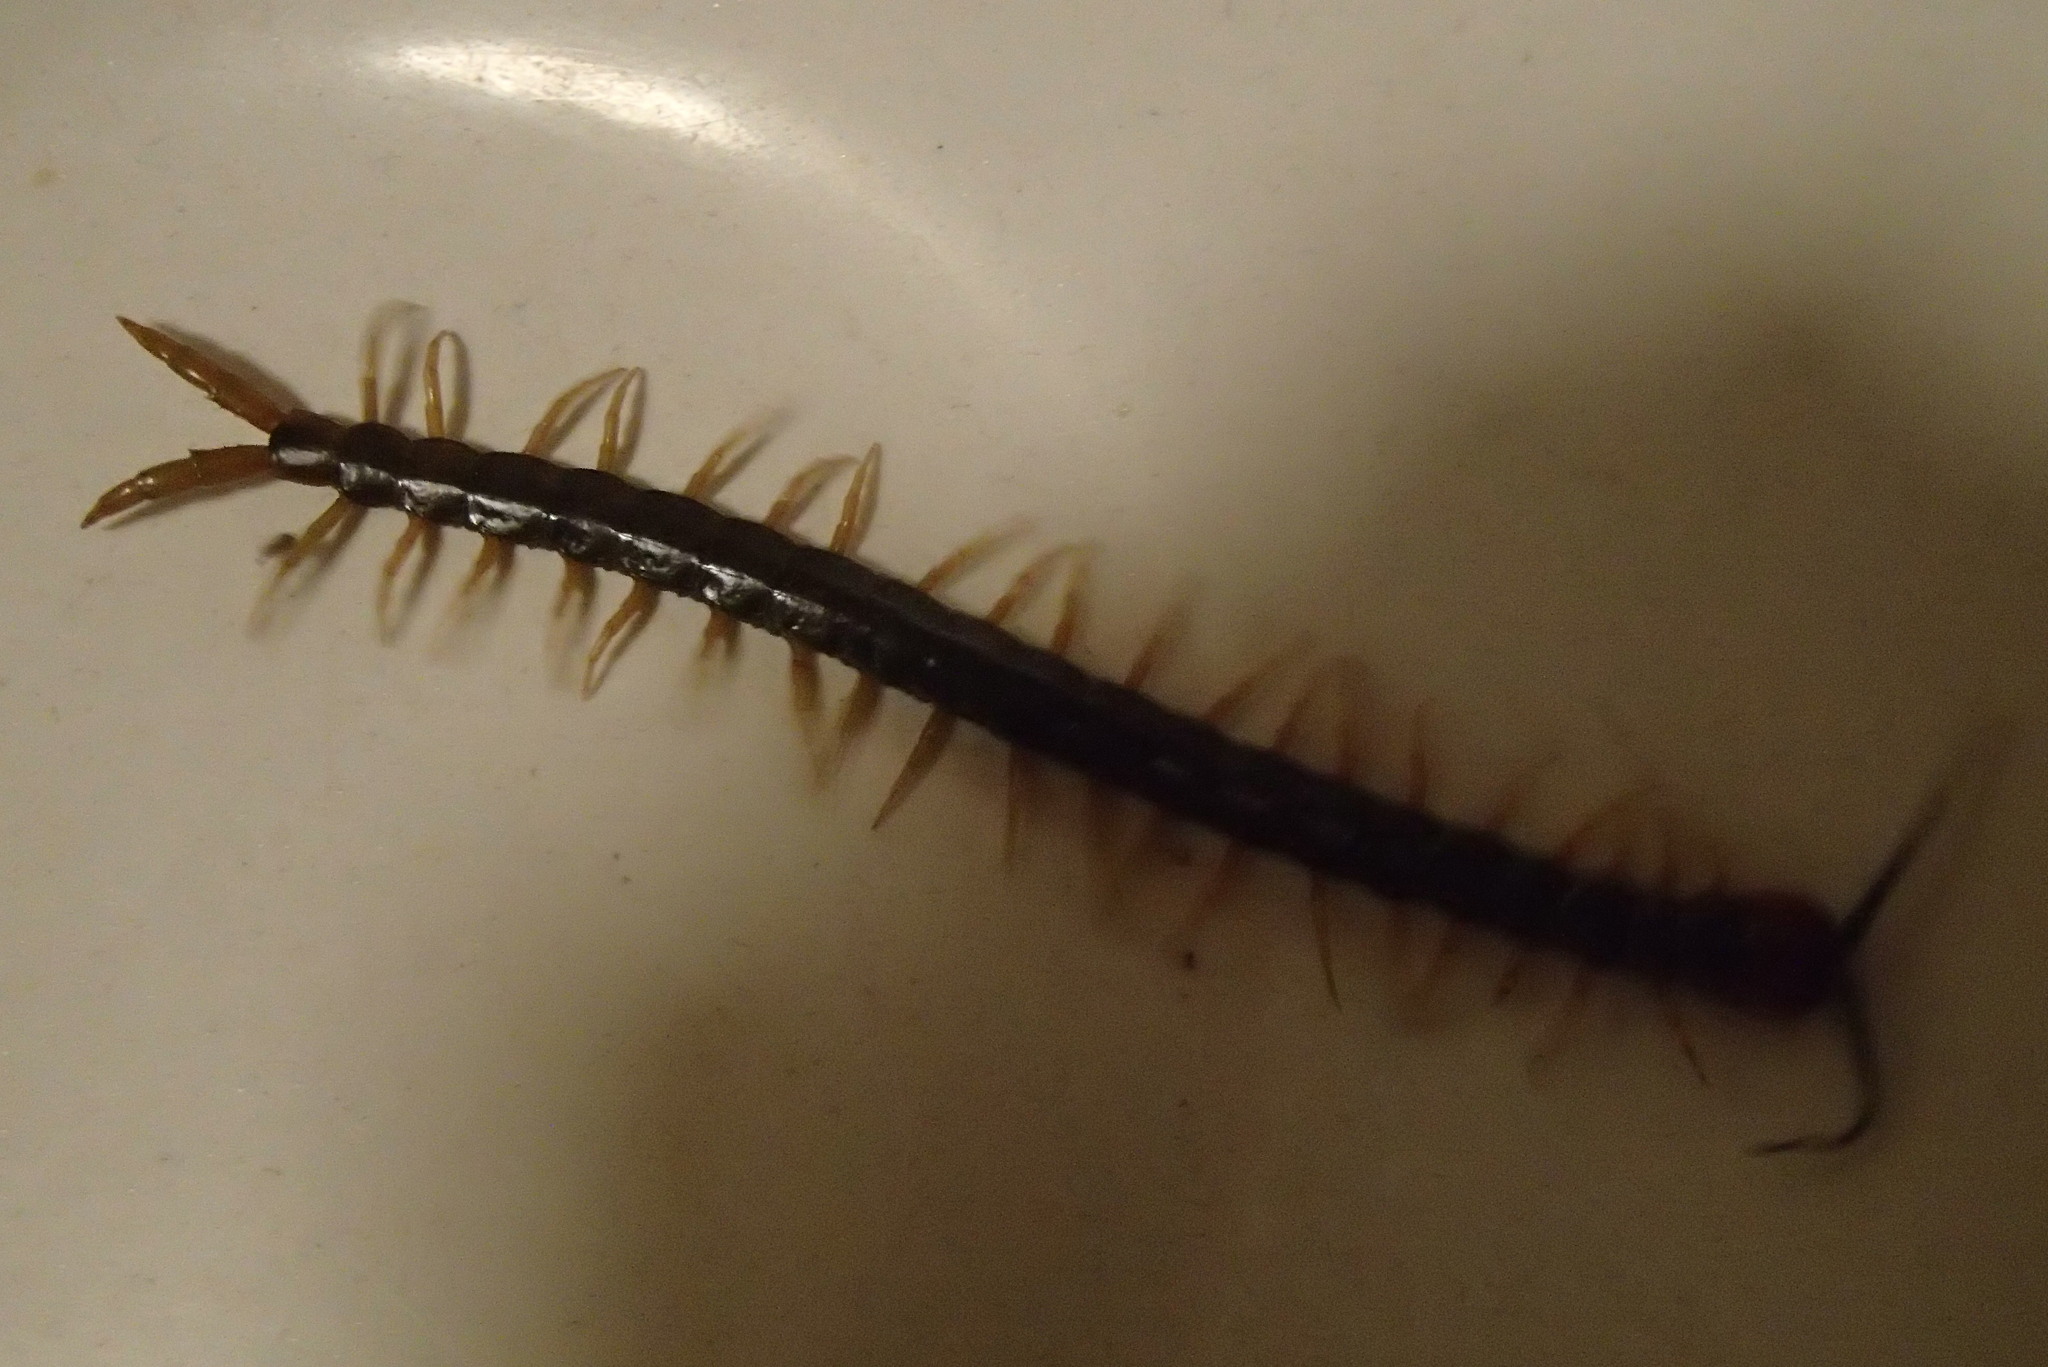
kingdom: Animalia
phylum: Arthropoda
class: Chilopoda
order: Scolopendromorpha
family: Scolopendridae
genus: Cormocephalus
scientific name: Cormocephalus westwoodi
